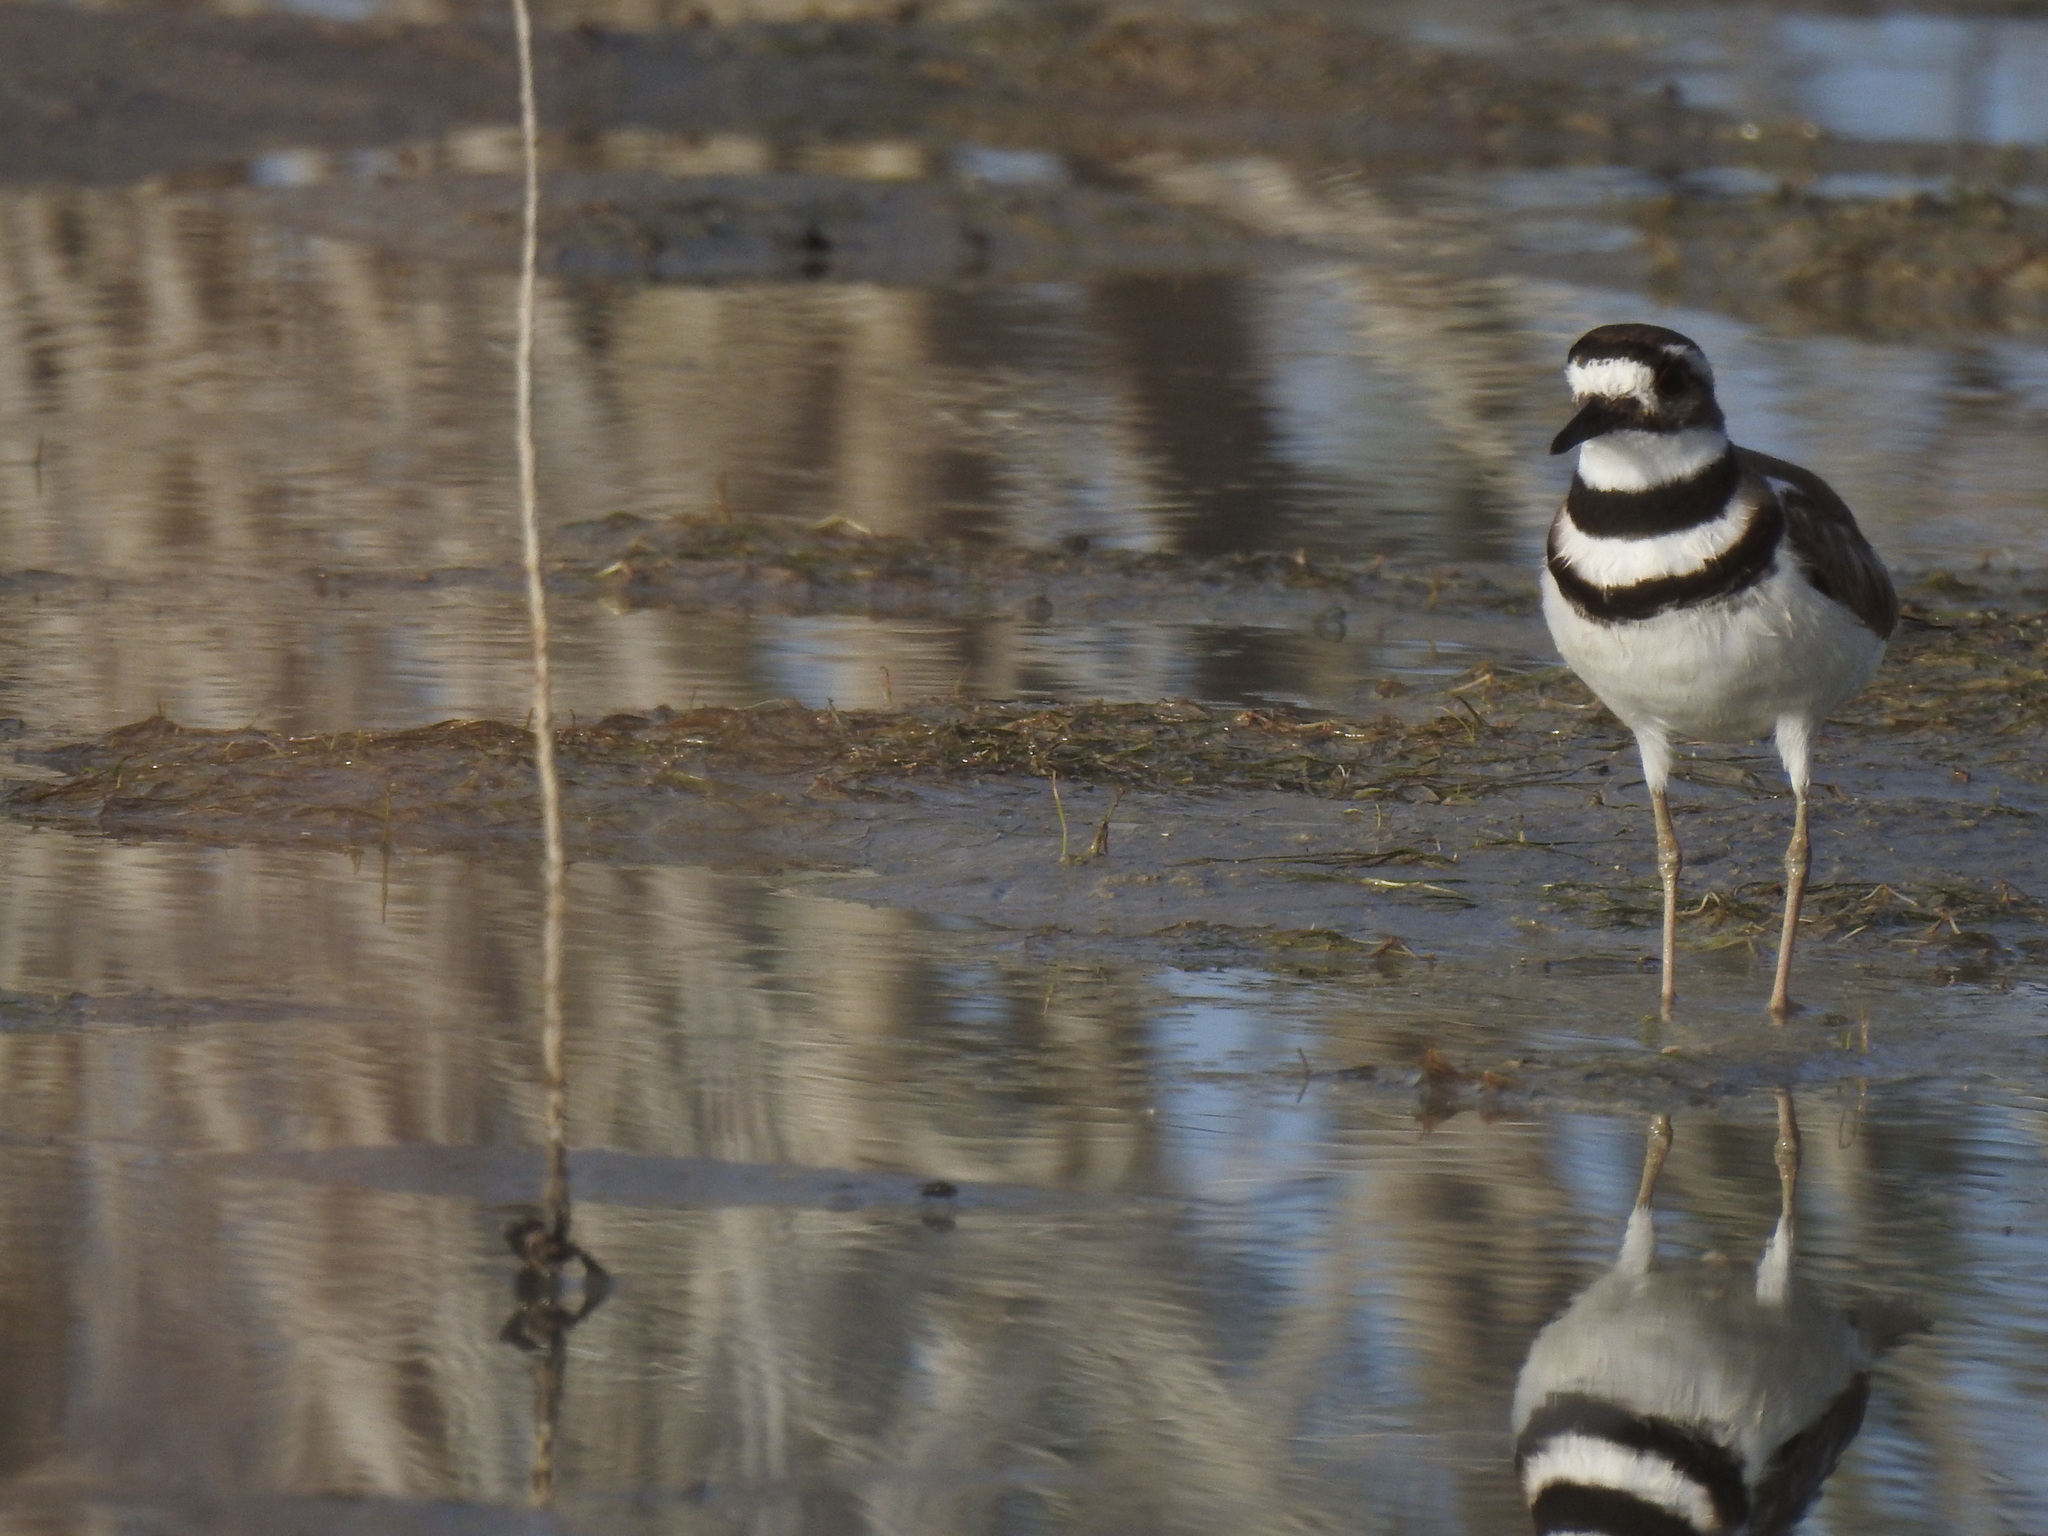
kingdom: Animalia
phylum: Chordata
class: Aves
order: Charadriiformes
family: Charadriidae
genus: Charadrius
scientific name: Charadrius vociferus
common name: Killdeer
